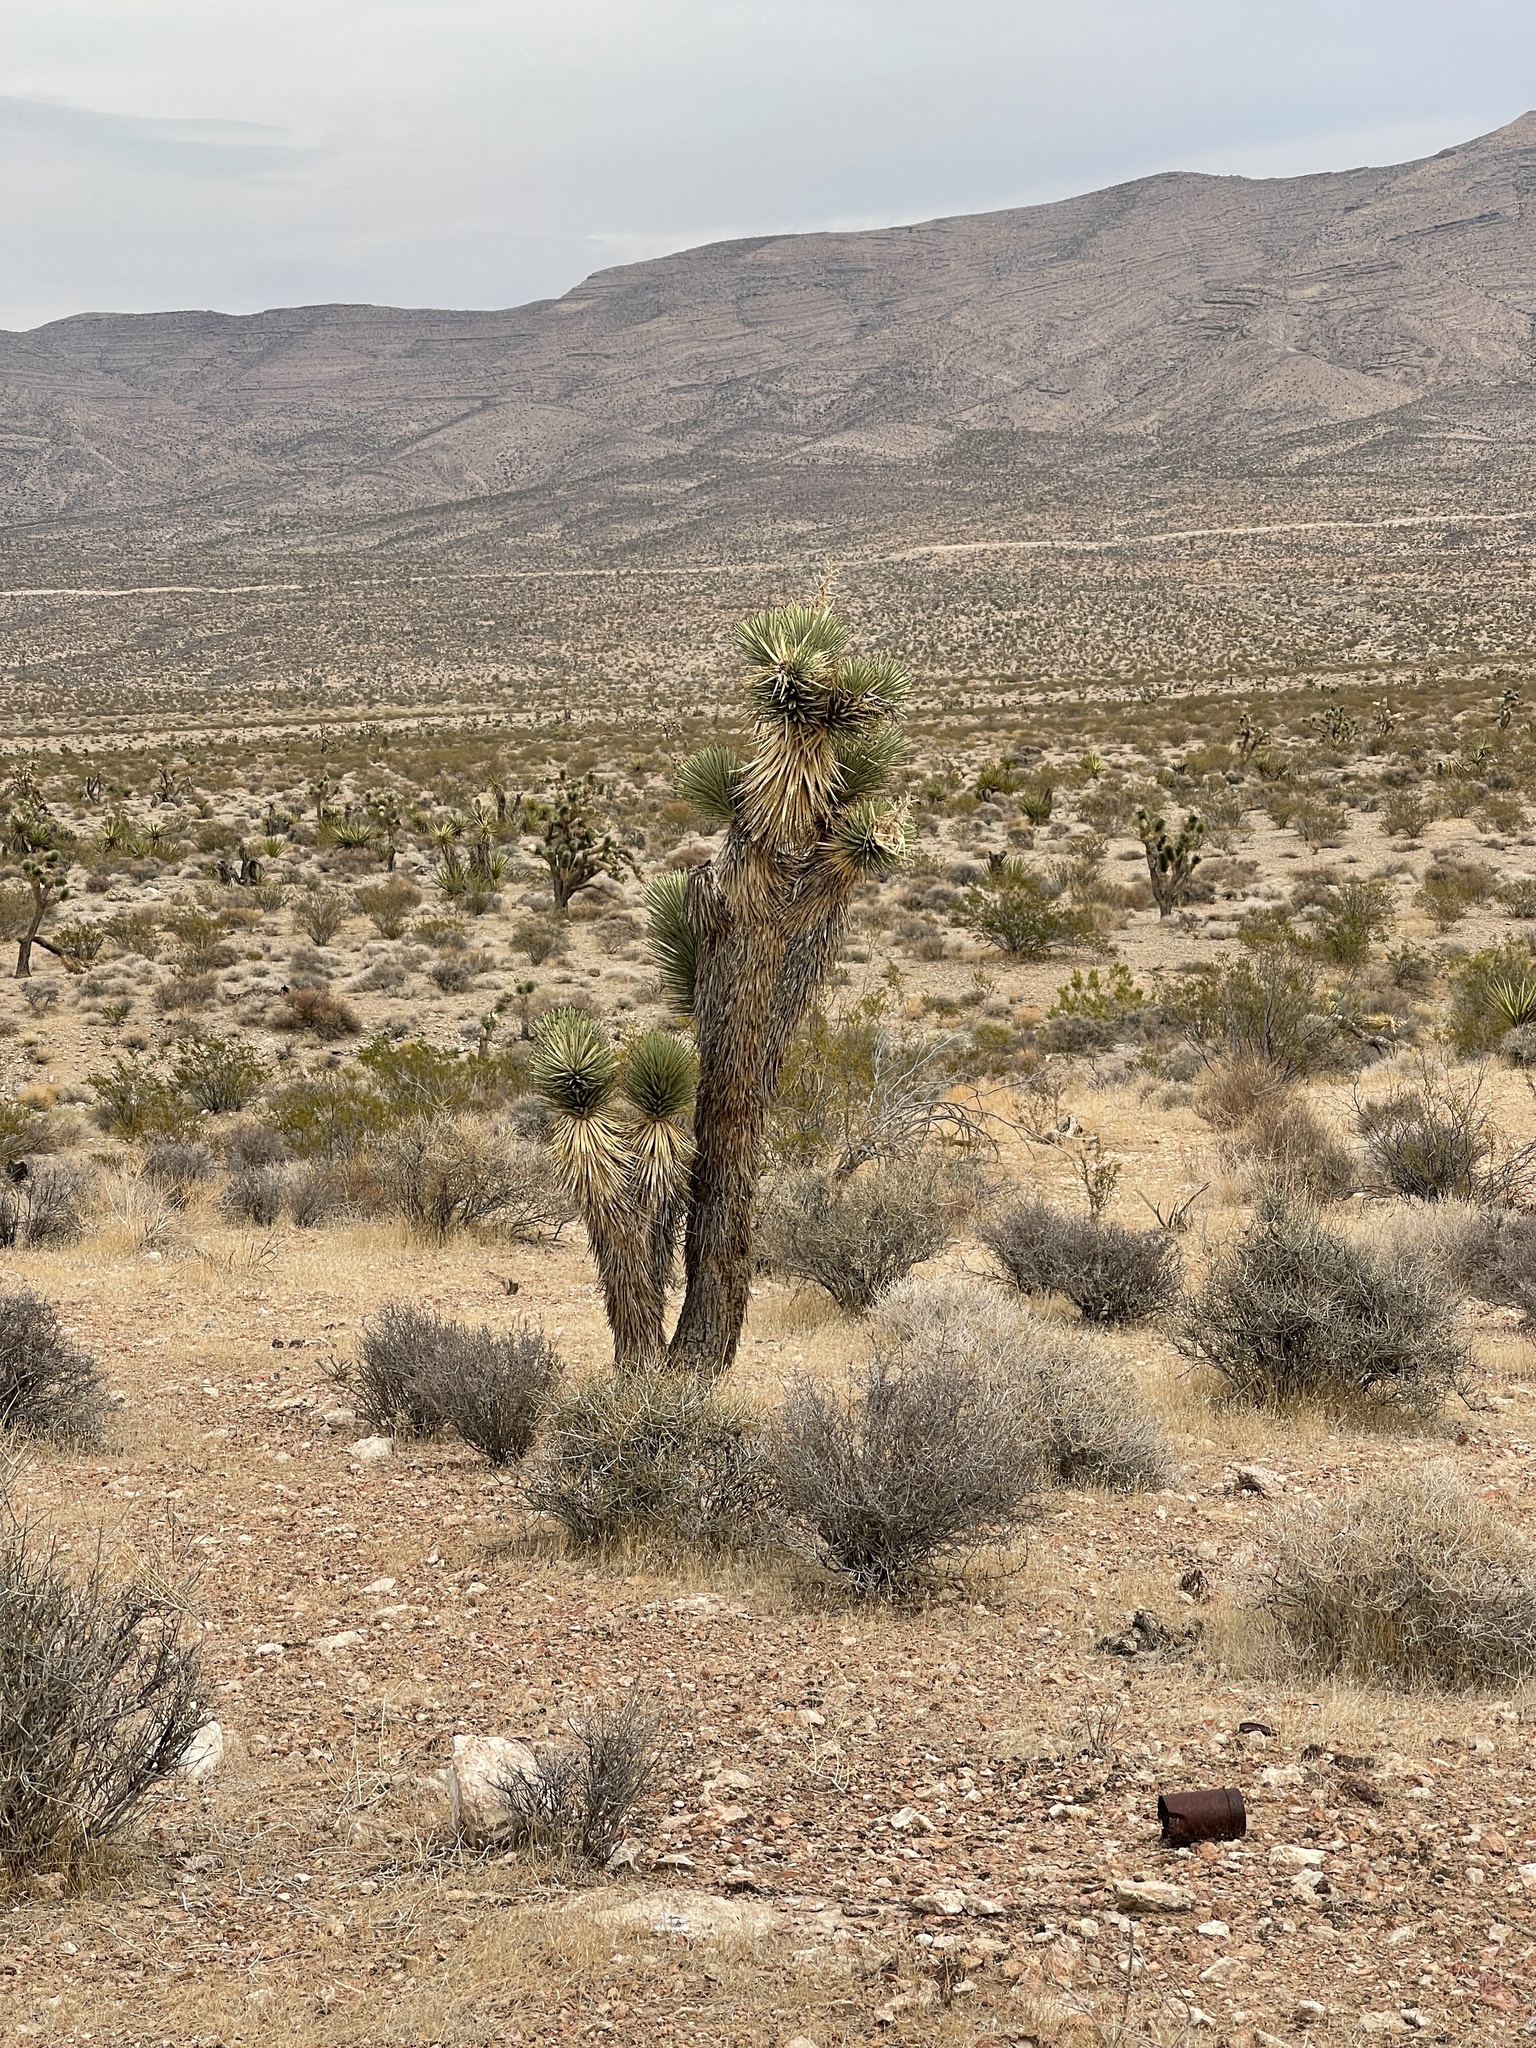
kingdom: Plantae
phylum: Tracheophyta
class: Liliopsida
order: Asparagales
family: Asparagaceae
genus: Yucca
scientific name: Yucca brevifolia
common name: Joshua tree
